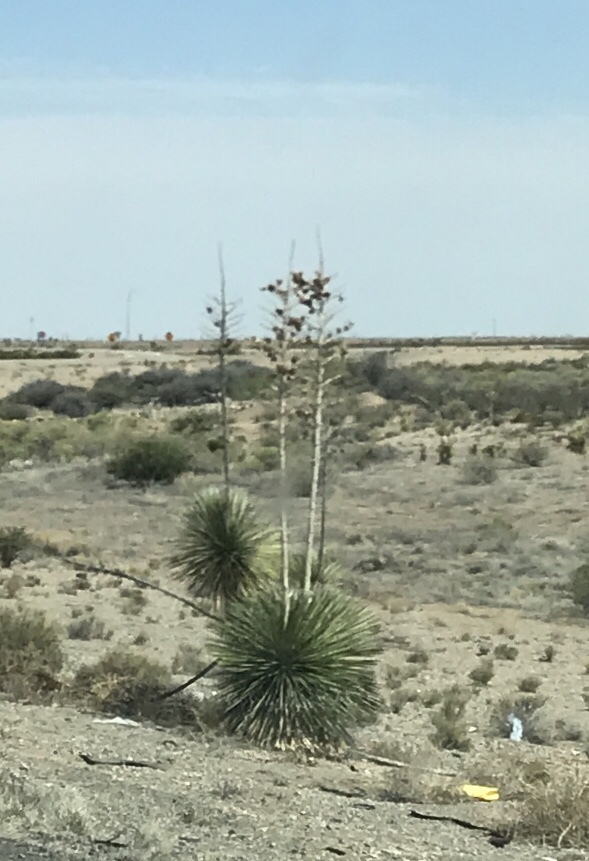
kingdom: Plantae
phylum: Tracheophyta
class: Liliopsida
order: Asparagales
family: Asparagaceae
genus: Yucca
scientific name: Yucca elata
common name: Palmella
